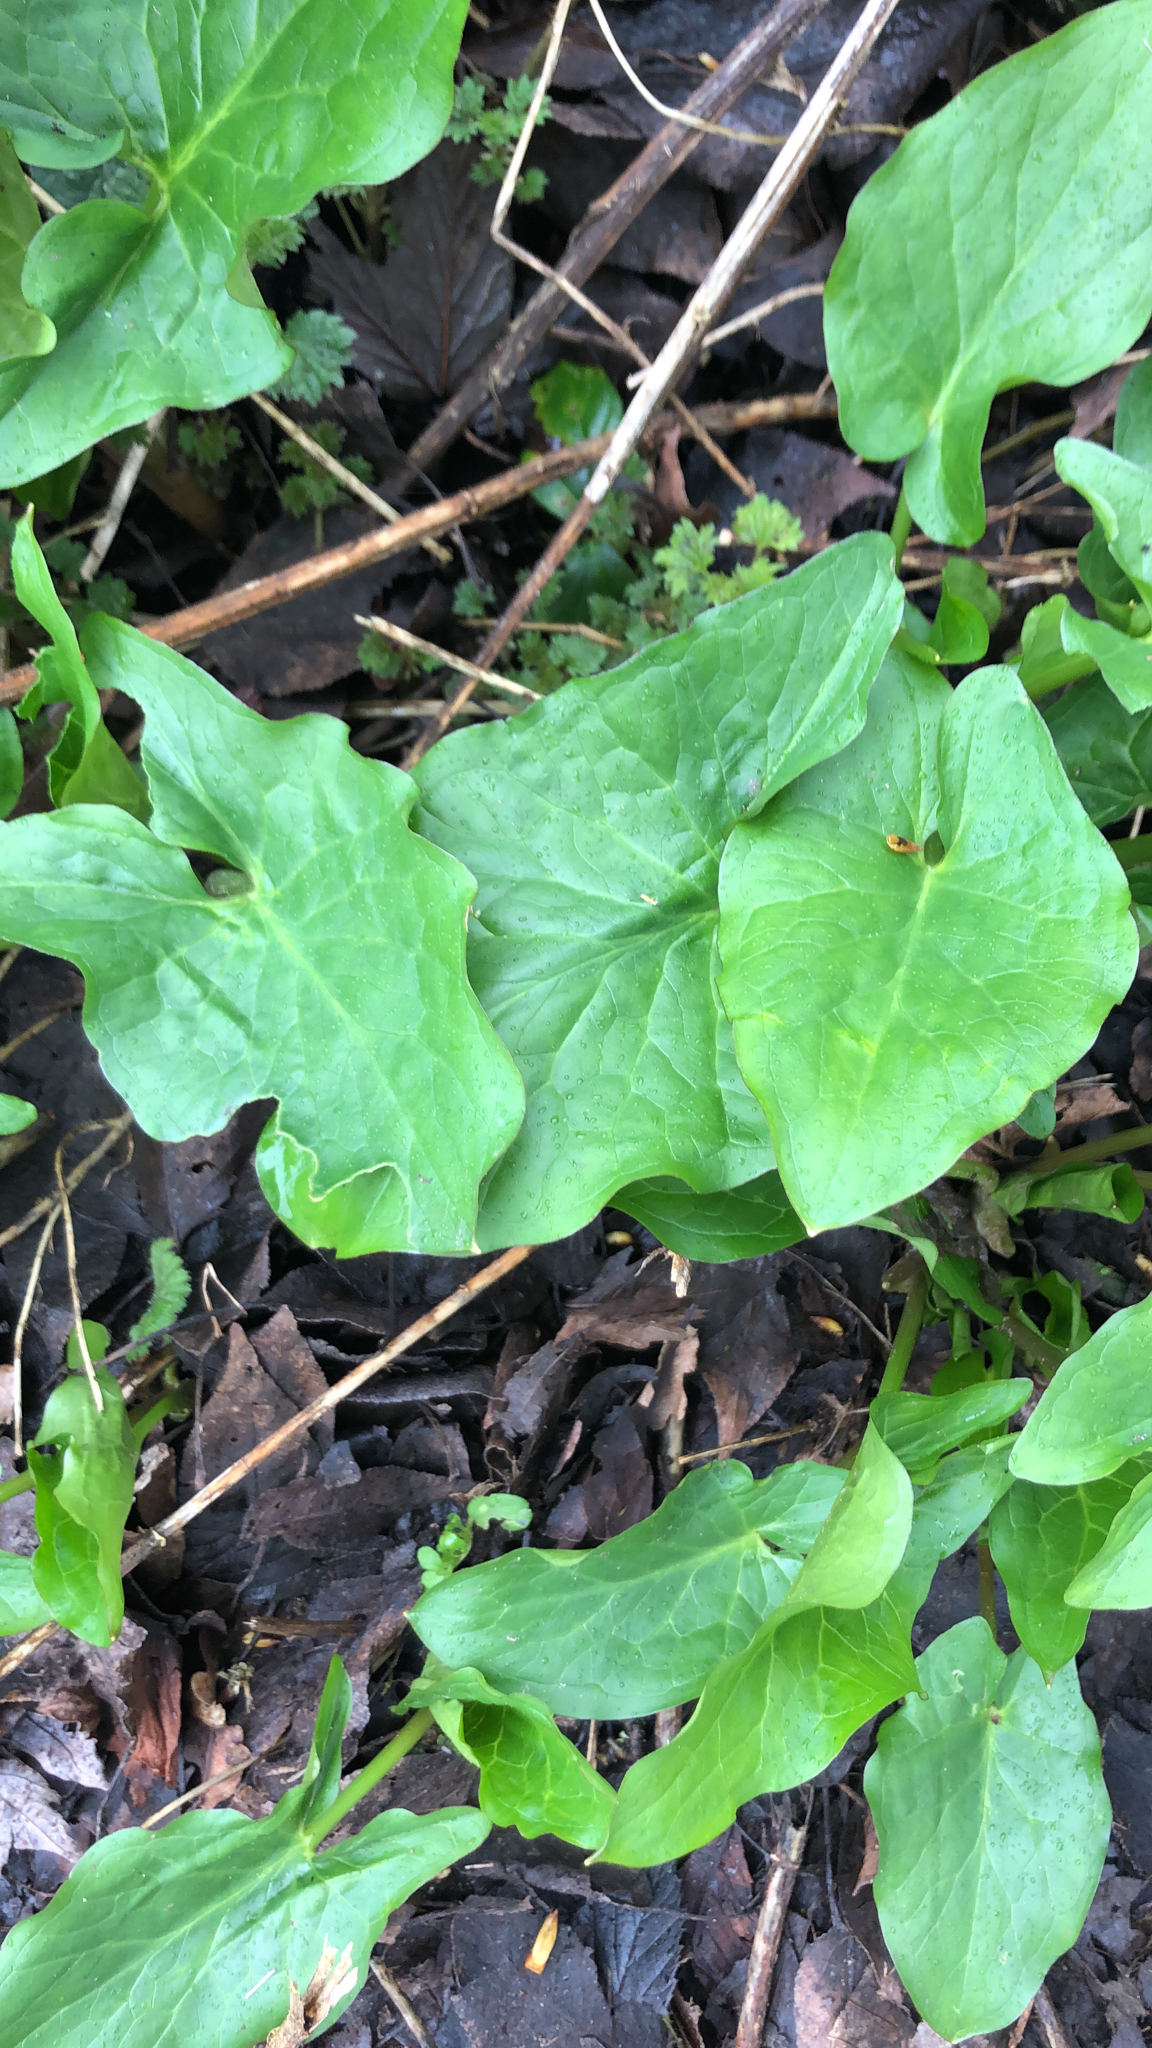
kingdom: Plantae
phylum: Tracheophyta
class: Liliopsida
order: Alismatales
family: Araceae
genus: Arum
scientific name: Arum maculatum
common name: Lords-and-ladies
